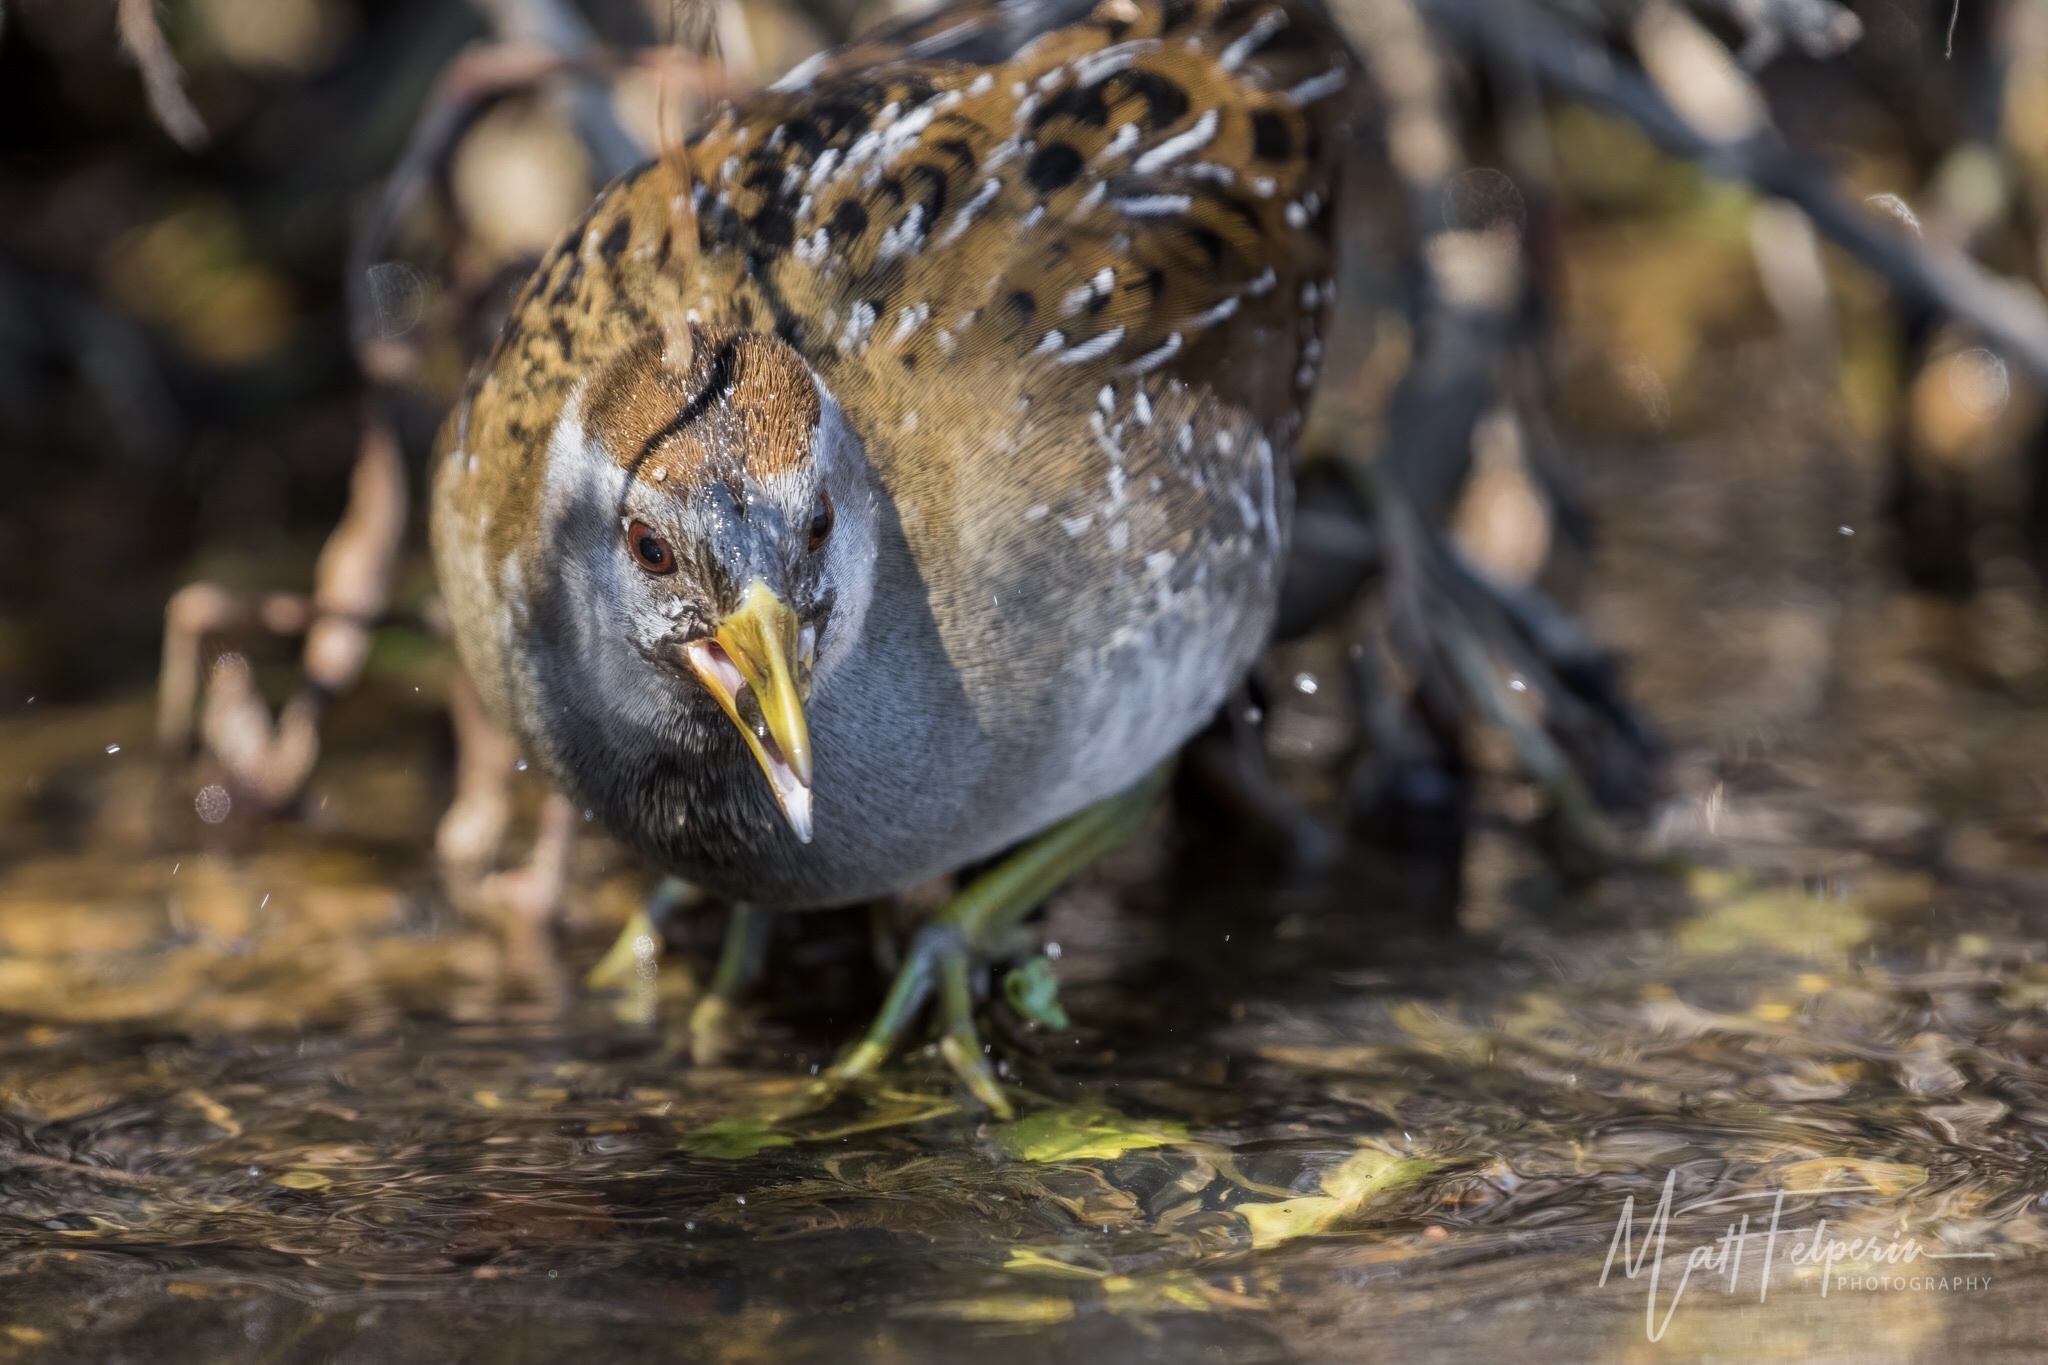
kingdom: Animalia
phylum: Chordata
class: Aves
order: Gruiformes
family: Rallidae
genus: Porzana
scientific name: Porzana carolina
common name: Sora
